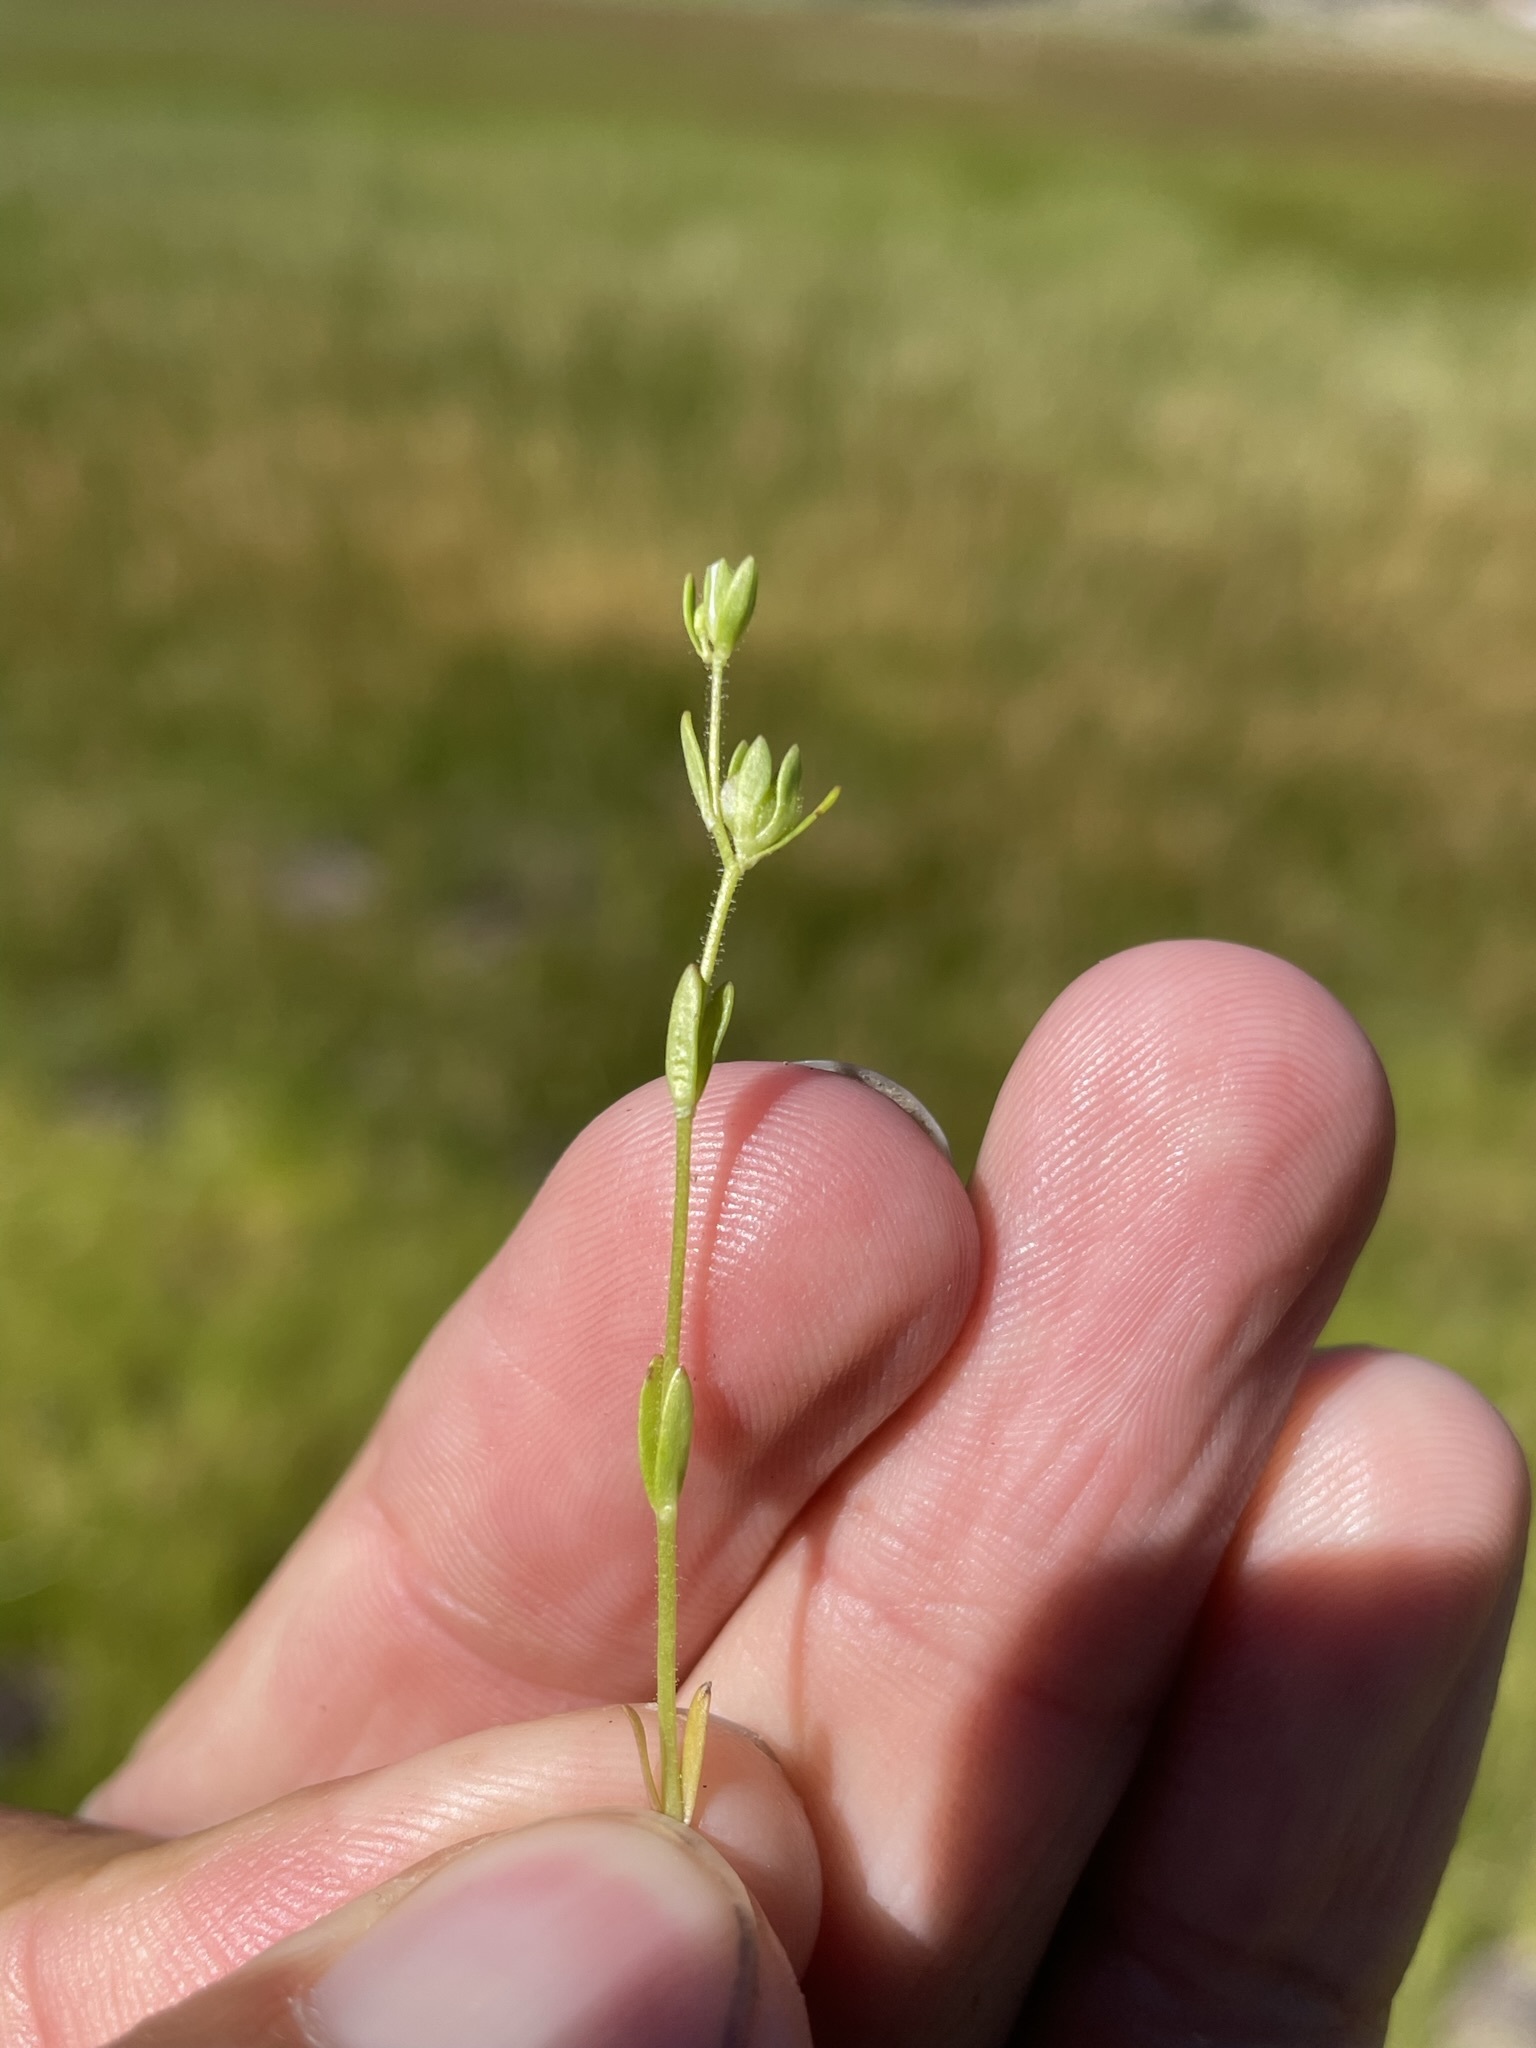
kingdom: Plantae
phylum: Tracheophyta
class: Magnoliopsida
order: Lamiales
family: Plantaginaceae
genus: Veronica
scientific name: Veronica peregrina
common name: Neckweed
